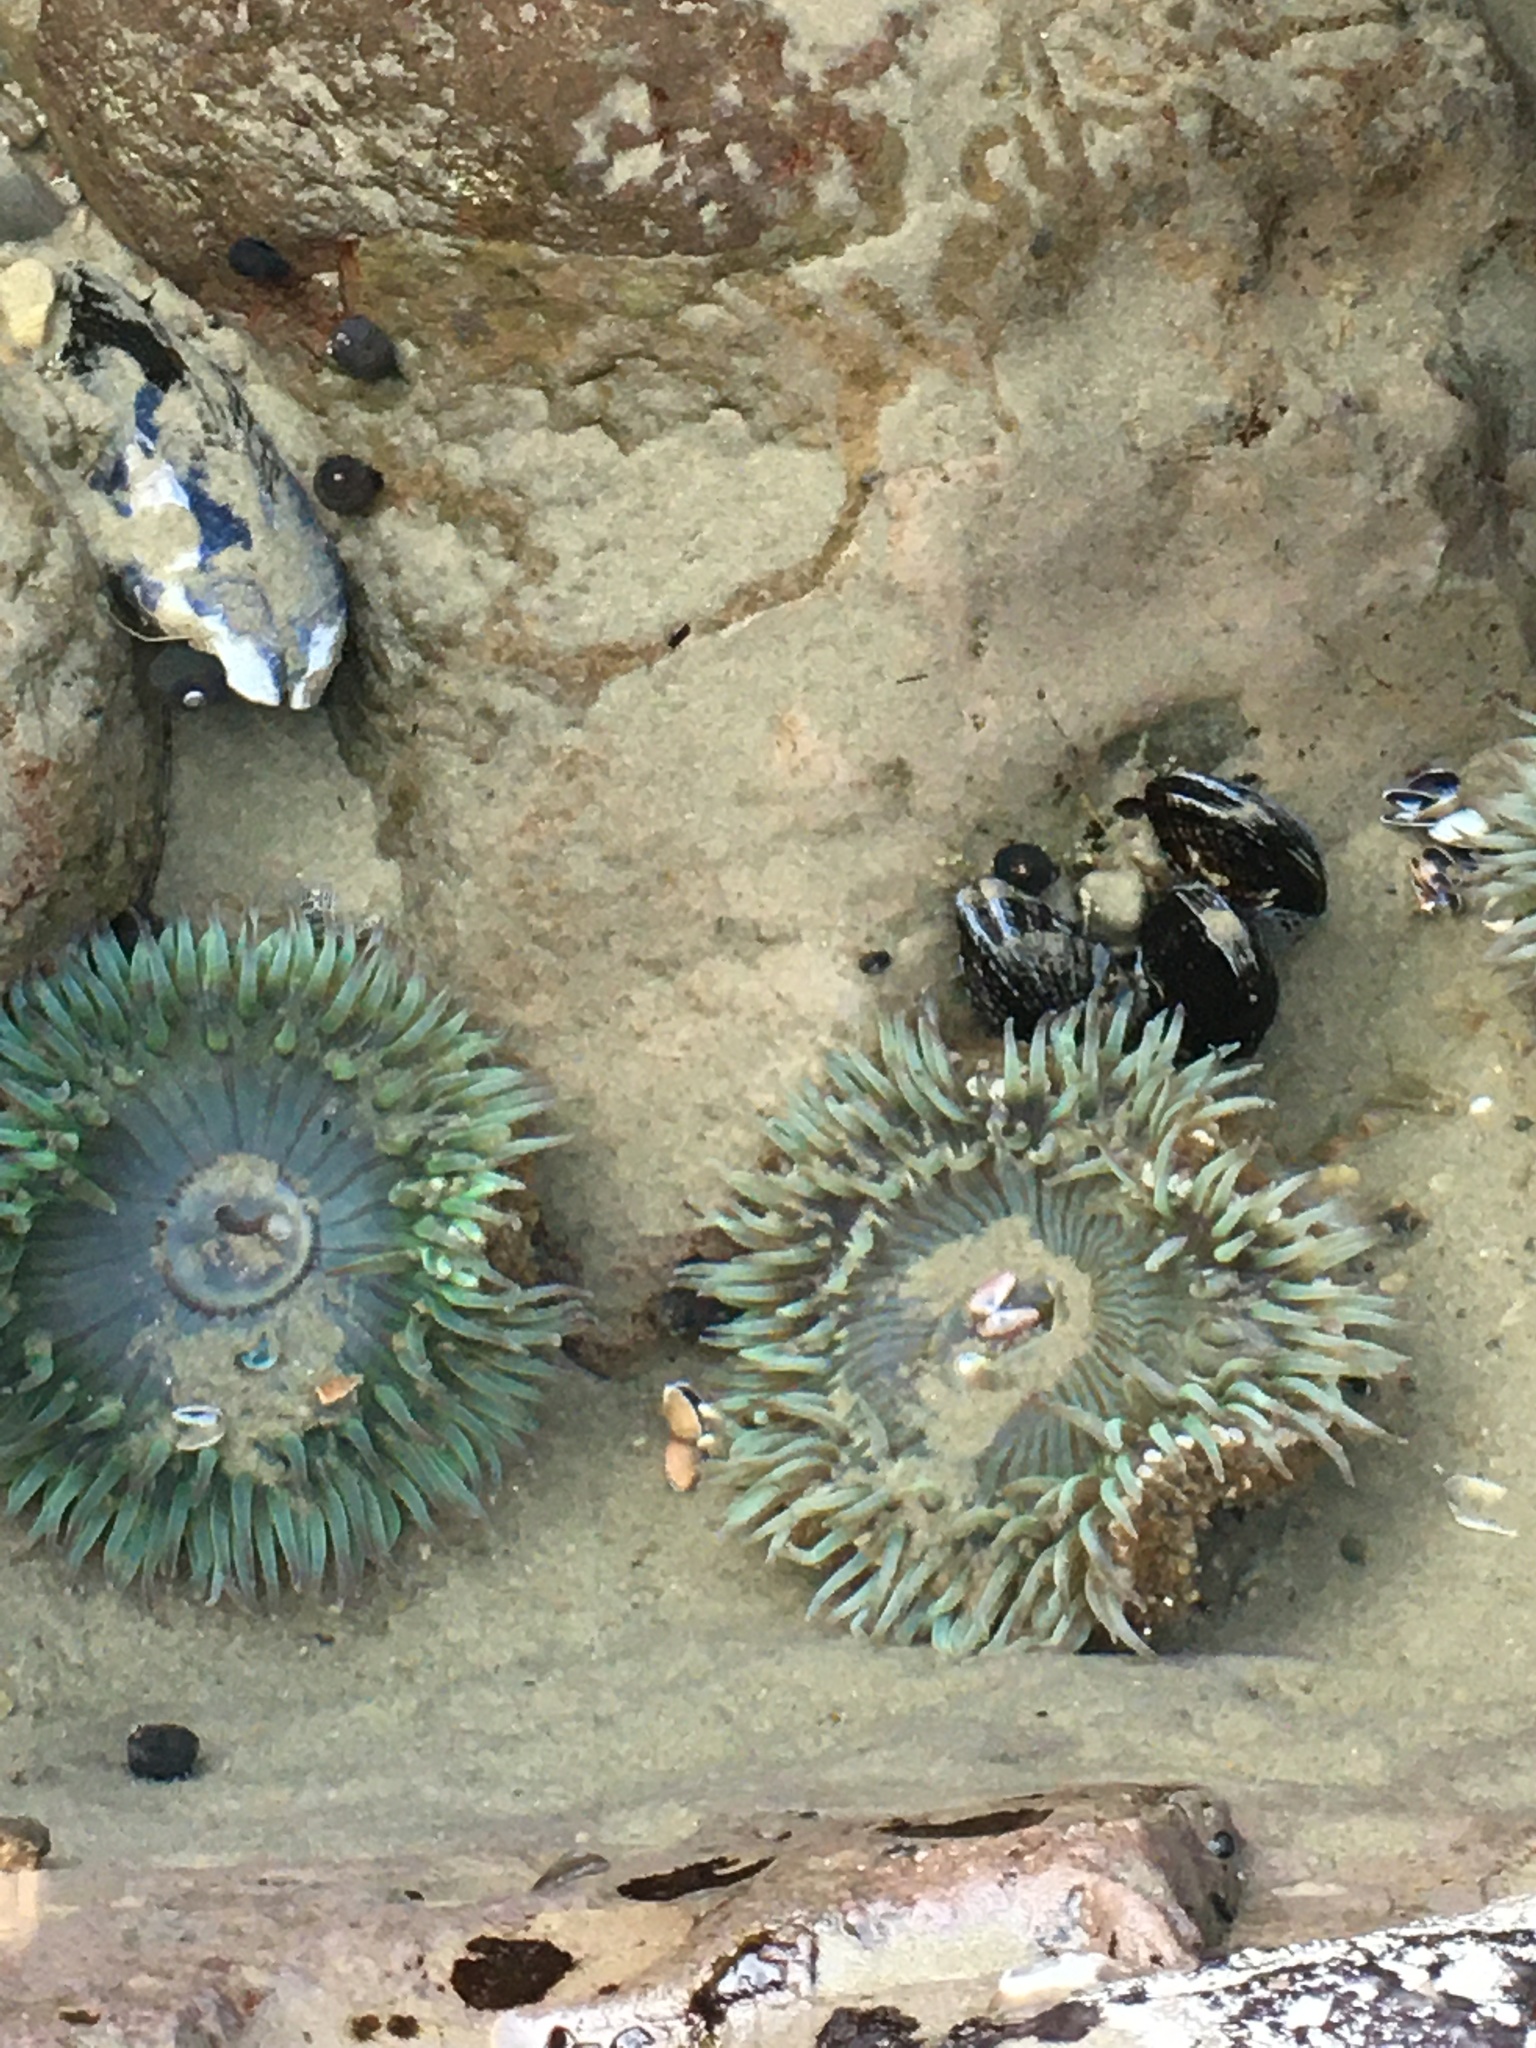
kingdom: Animalia
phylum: Cnidaria
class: Anthozoa
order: Actiniaria
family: Actiniidae
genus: Anthopleura
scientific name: Anthopleura sola
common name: Sun anemone
